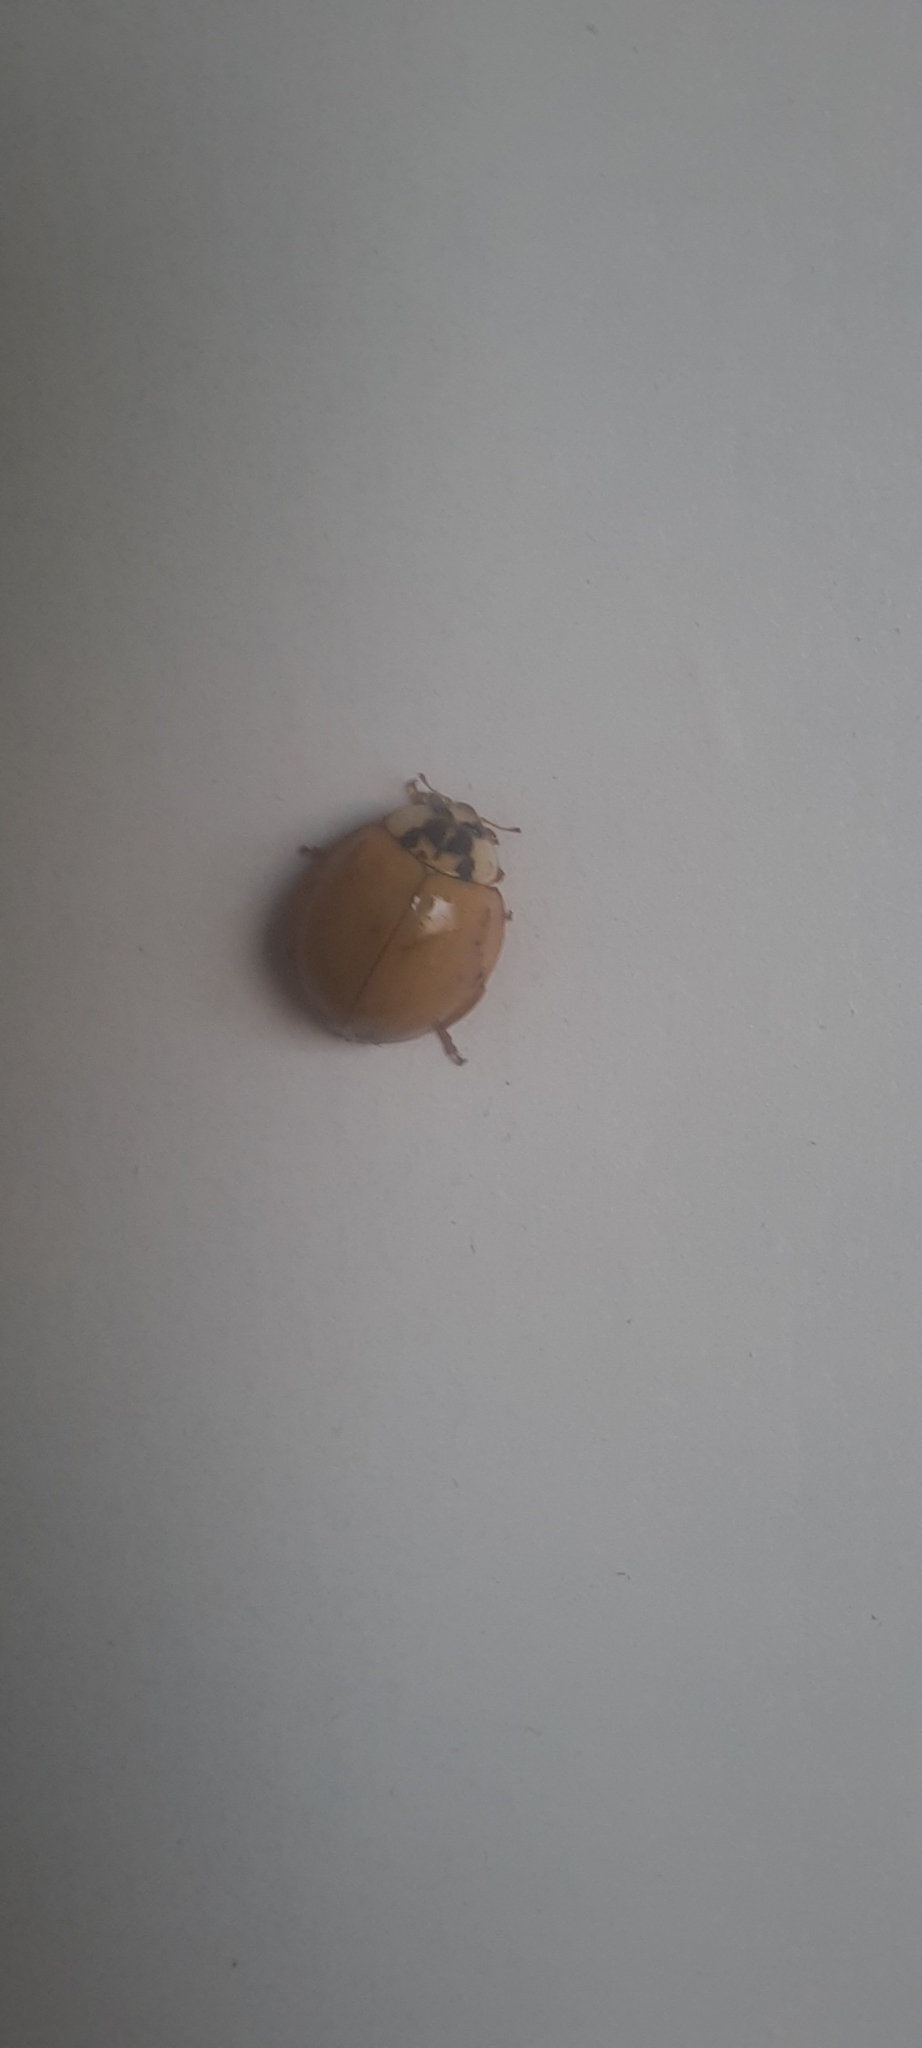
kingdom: Animalia
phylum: Arthropoda
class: Insecta
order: Coleoptera
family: Coccinellidae
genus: Harmonia
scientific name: Harmonia axyridis
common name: Harlequin ladybird
